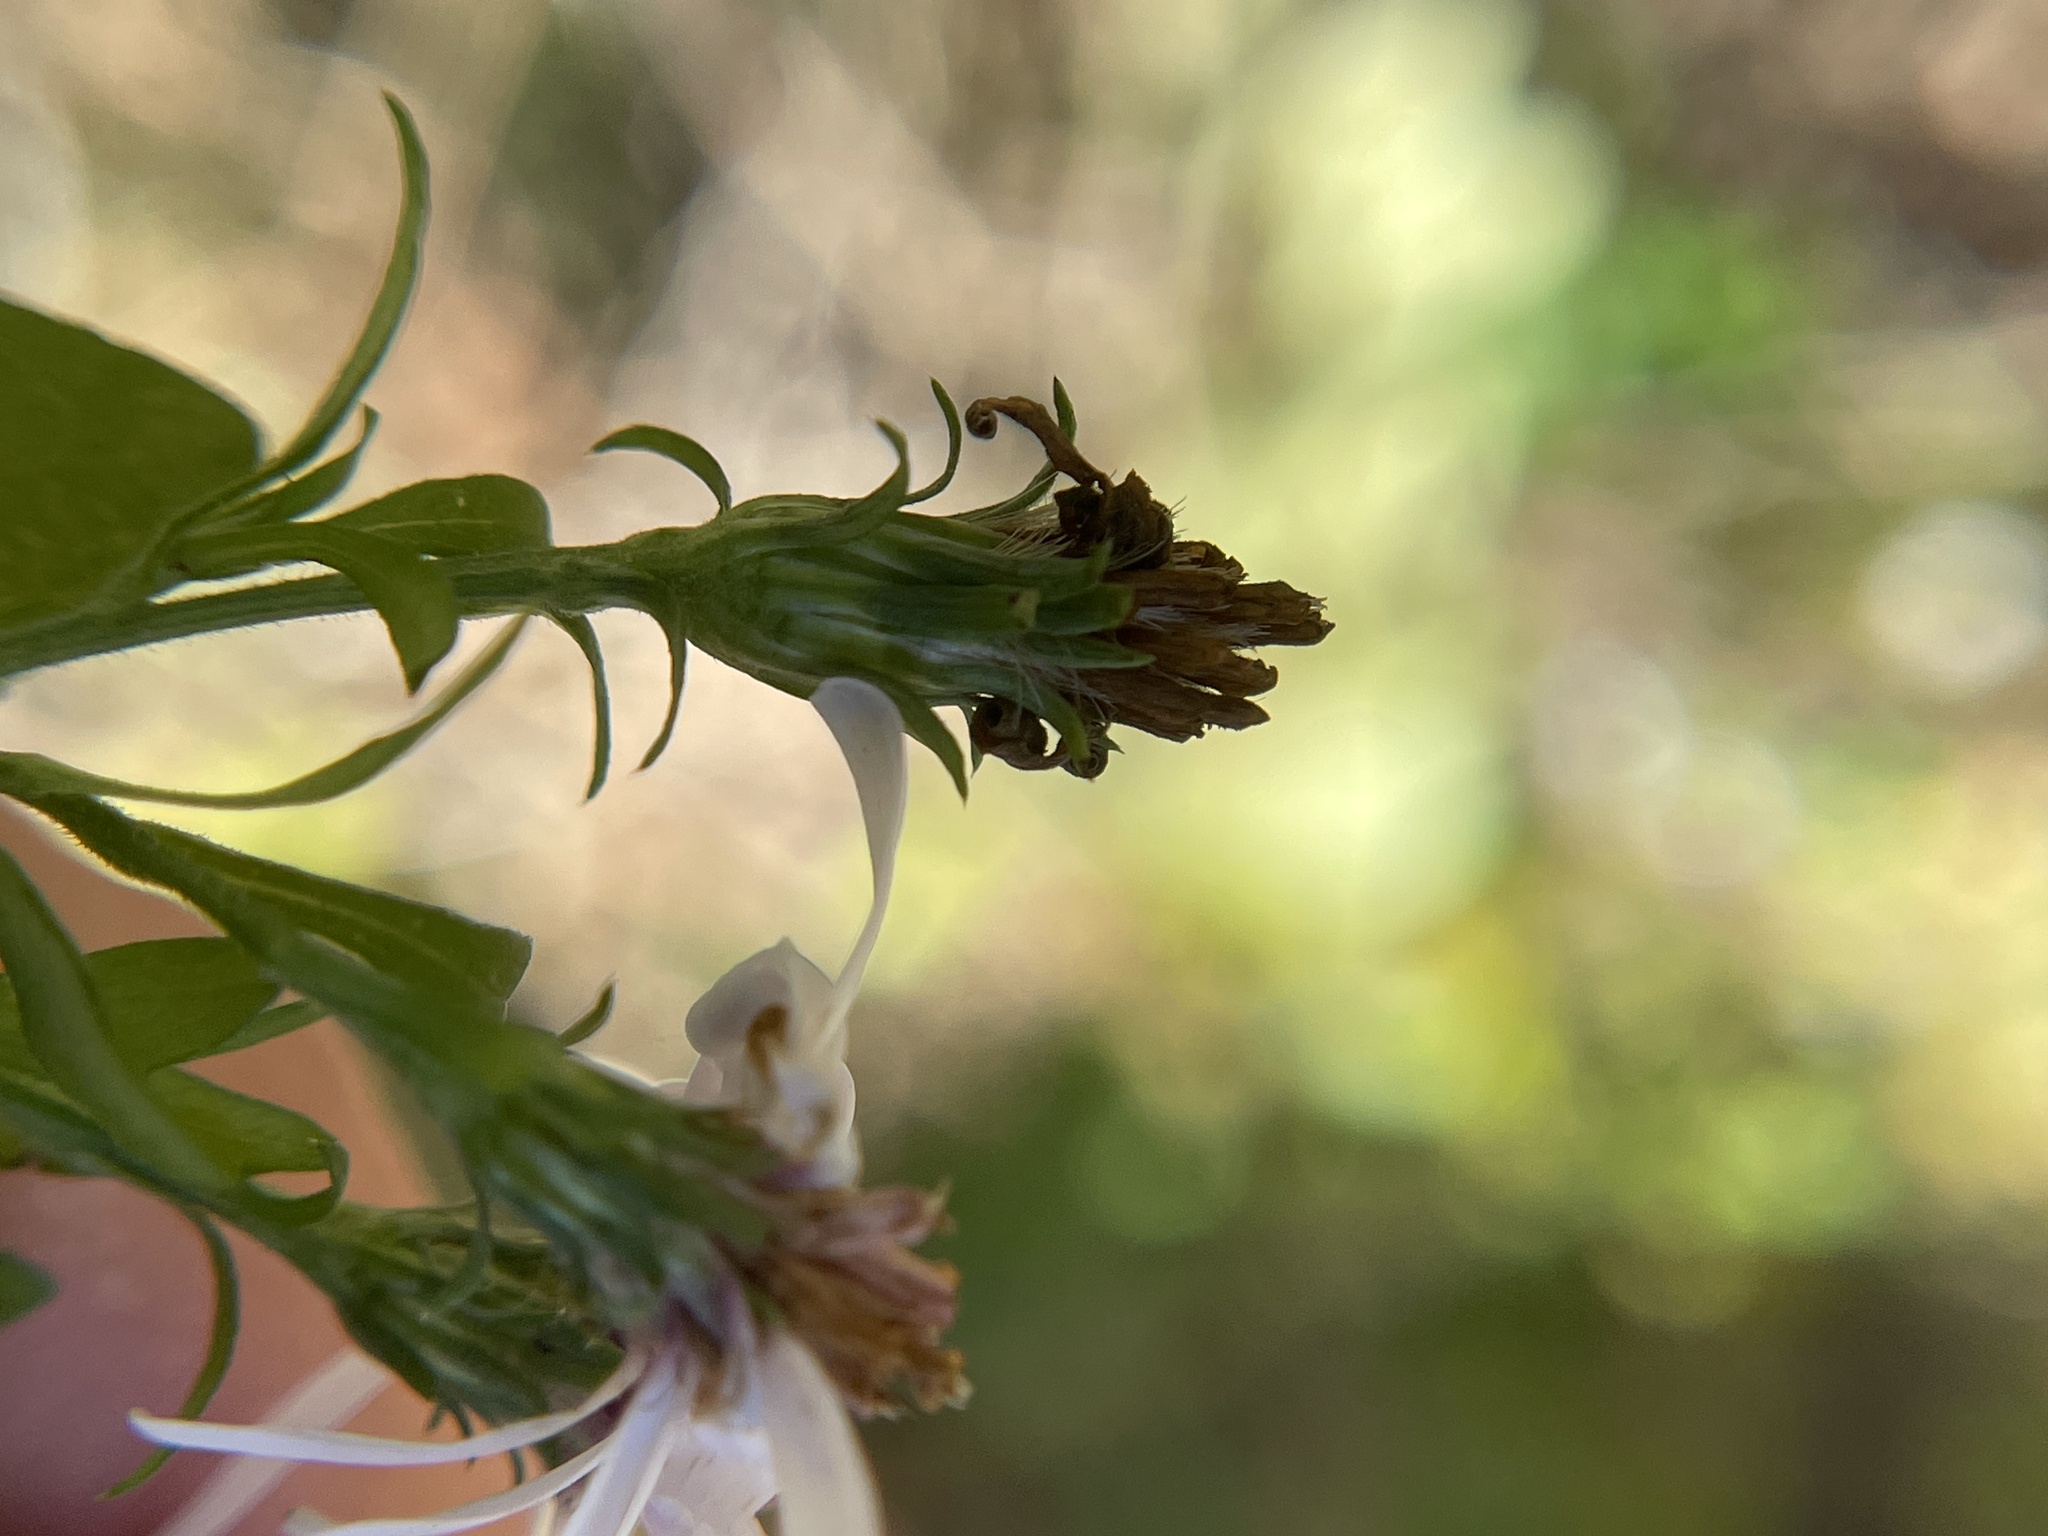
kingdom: Plantae
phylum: Tracheophyta
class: Magnoliopsida
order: Asterales
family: Asteraceae
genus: Symphyotrichum
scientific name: Symphyotrichum drummondii
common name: Drummond's aster
